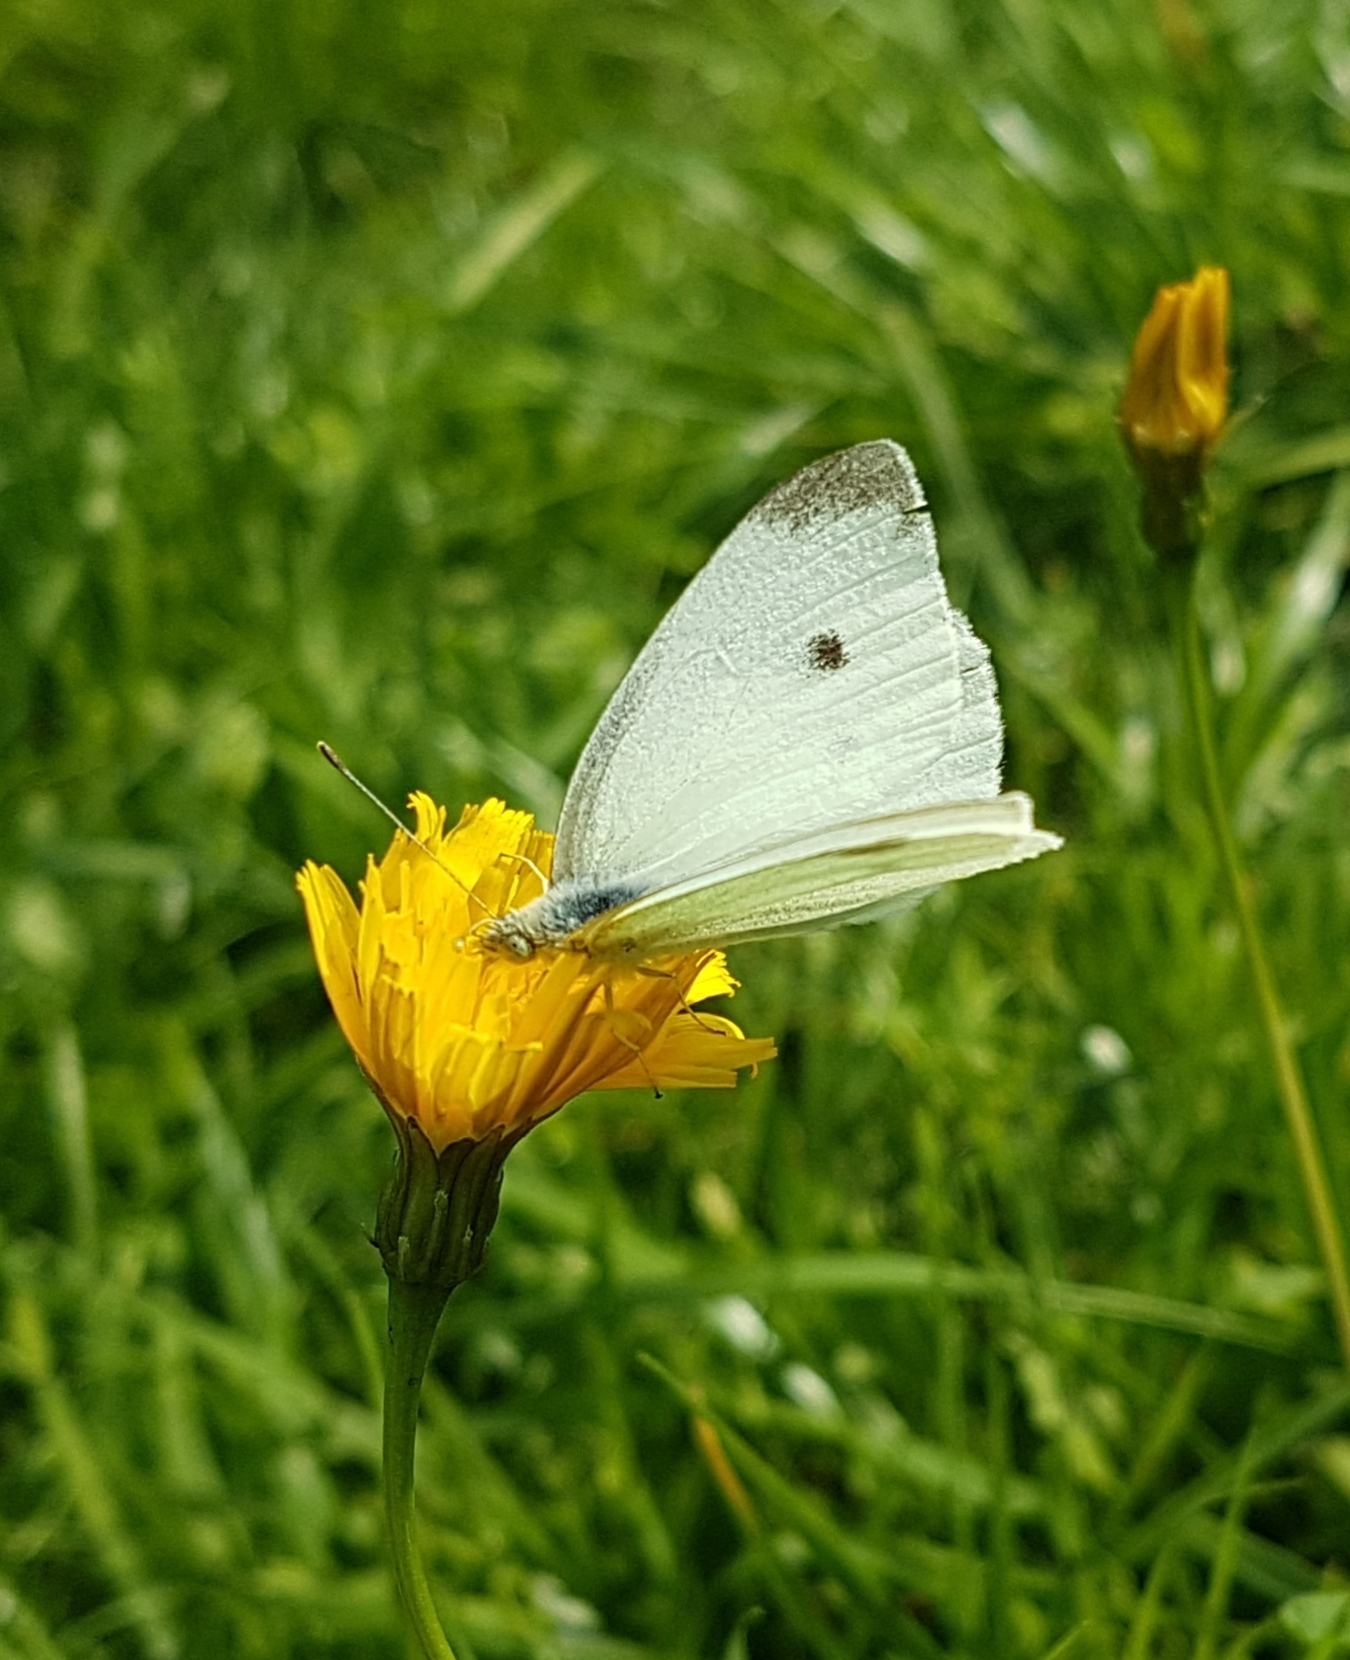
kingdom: Animalia
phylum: Arthropoda
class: Insecta
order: Lepidoptera
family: Pieridae
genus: Pieris
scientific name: Pieris rapae
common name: Small white
